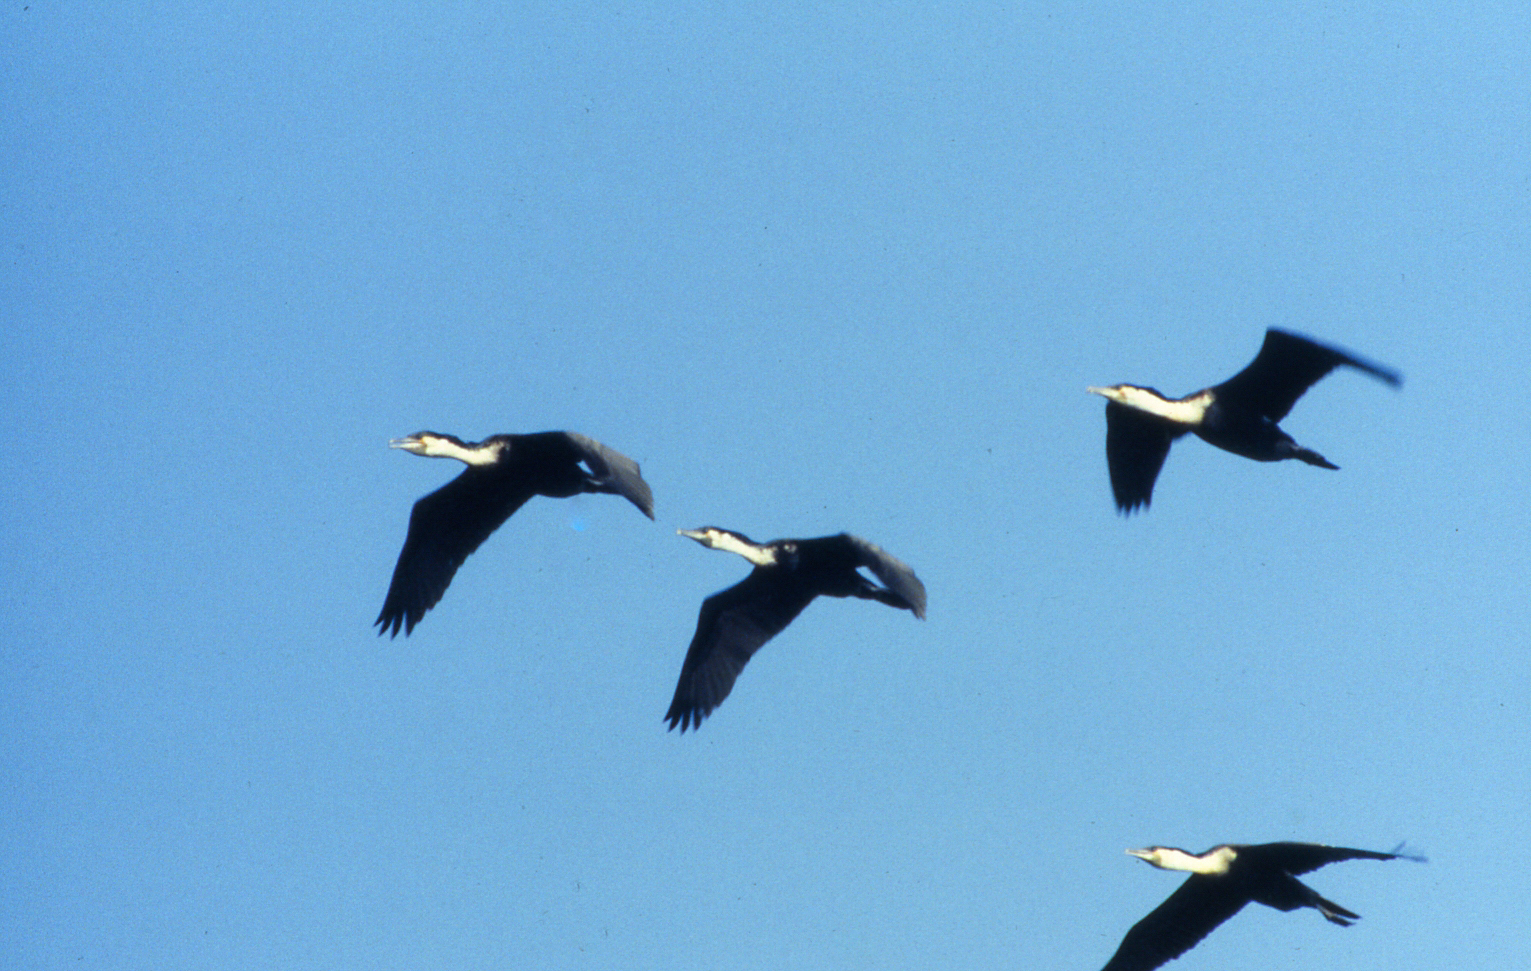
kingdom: Animalia
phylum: Chordata
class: Aves
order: Suliformes
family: Phalacrocoracidae
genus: Phalacrocorax
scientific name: Phalacrocorax carbo
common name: Great cormorant
